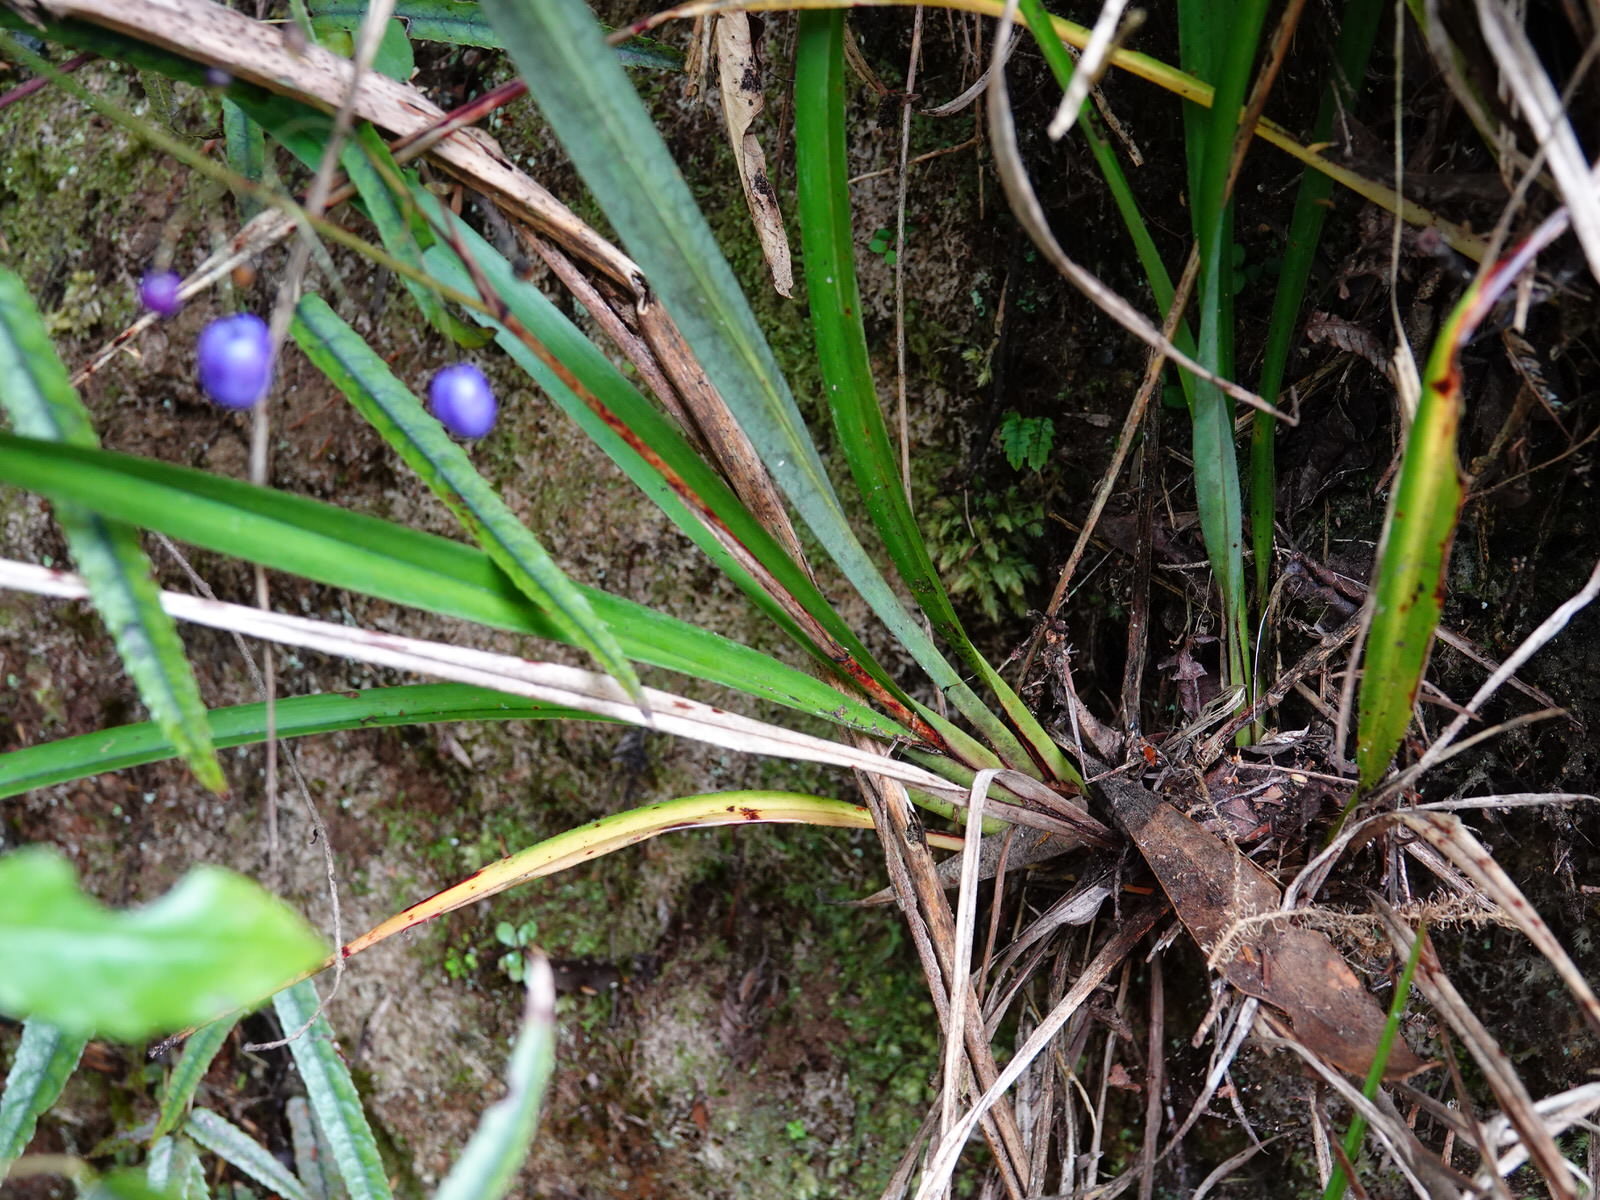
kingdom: Plantae
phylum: Tracheophyta
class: Liliopsida
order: Asparagales
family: Asphodelaceae
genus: Dianella
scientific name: Dianella nigra
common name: New zealand-blueberry
